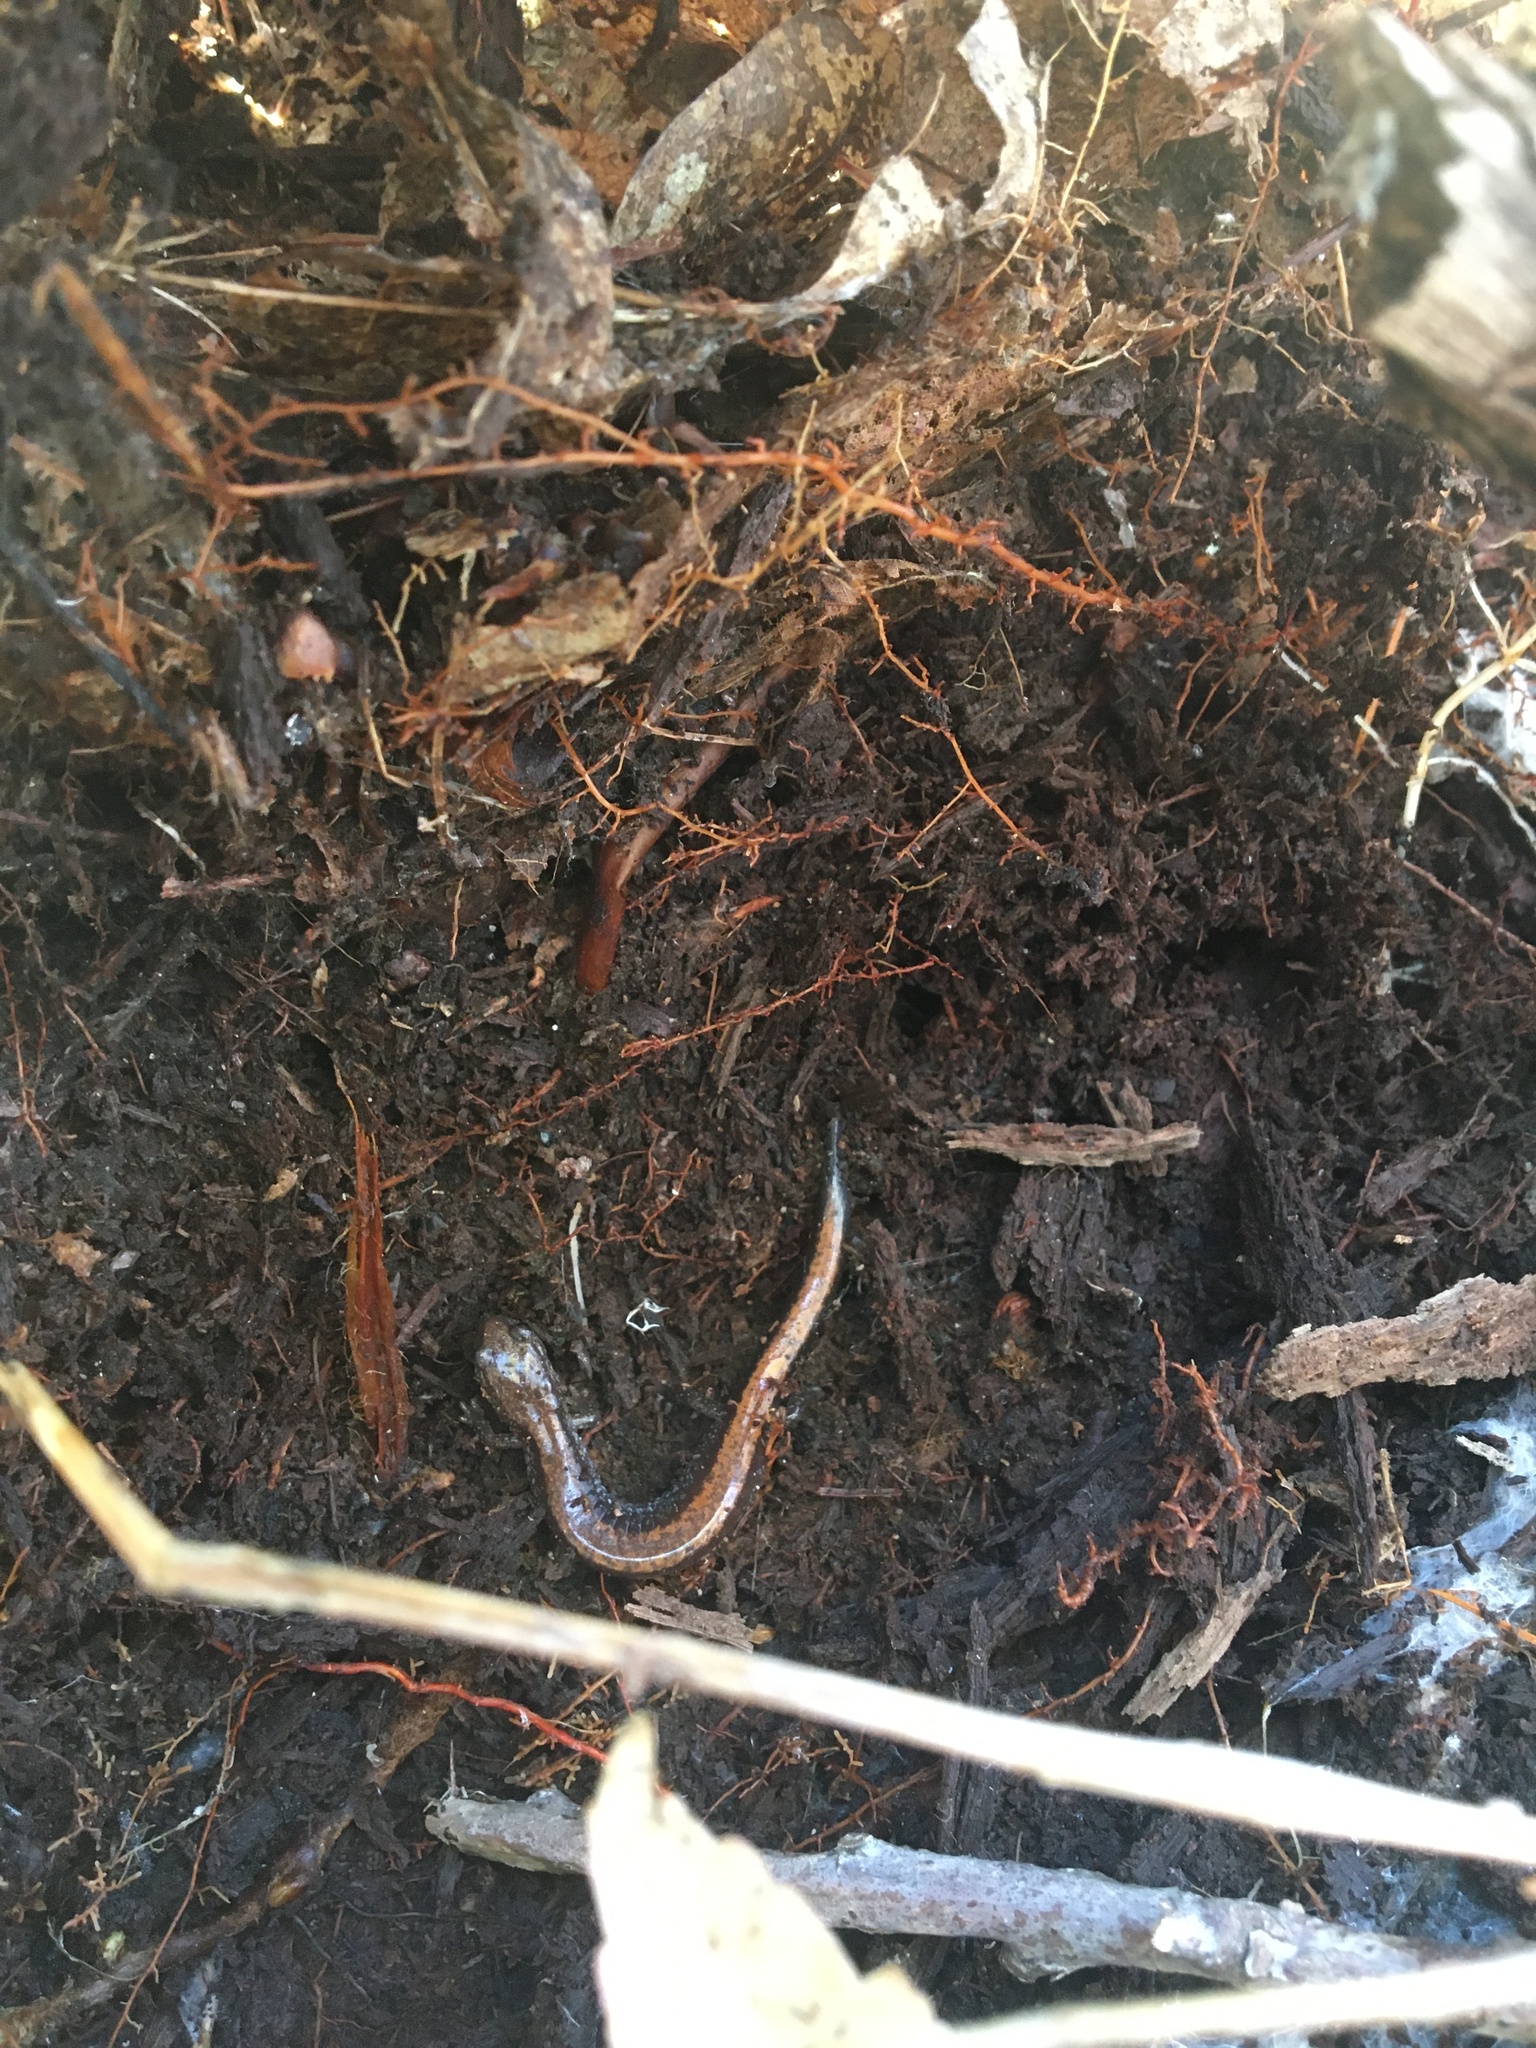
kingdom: Animalia
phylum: Chordata
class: Amphibia
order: Caudata
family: Plethodontidae
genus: Plethodon
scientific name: Plethodon cinereus
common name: Redback salamander
